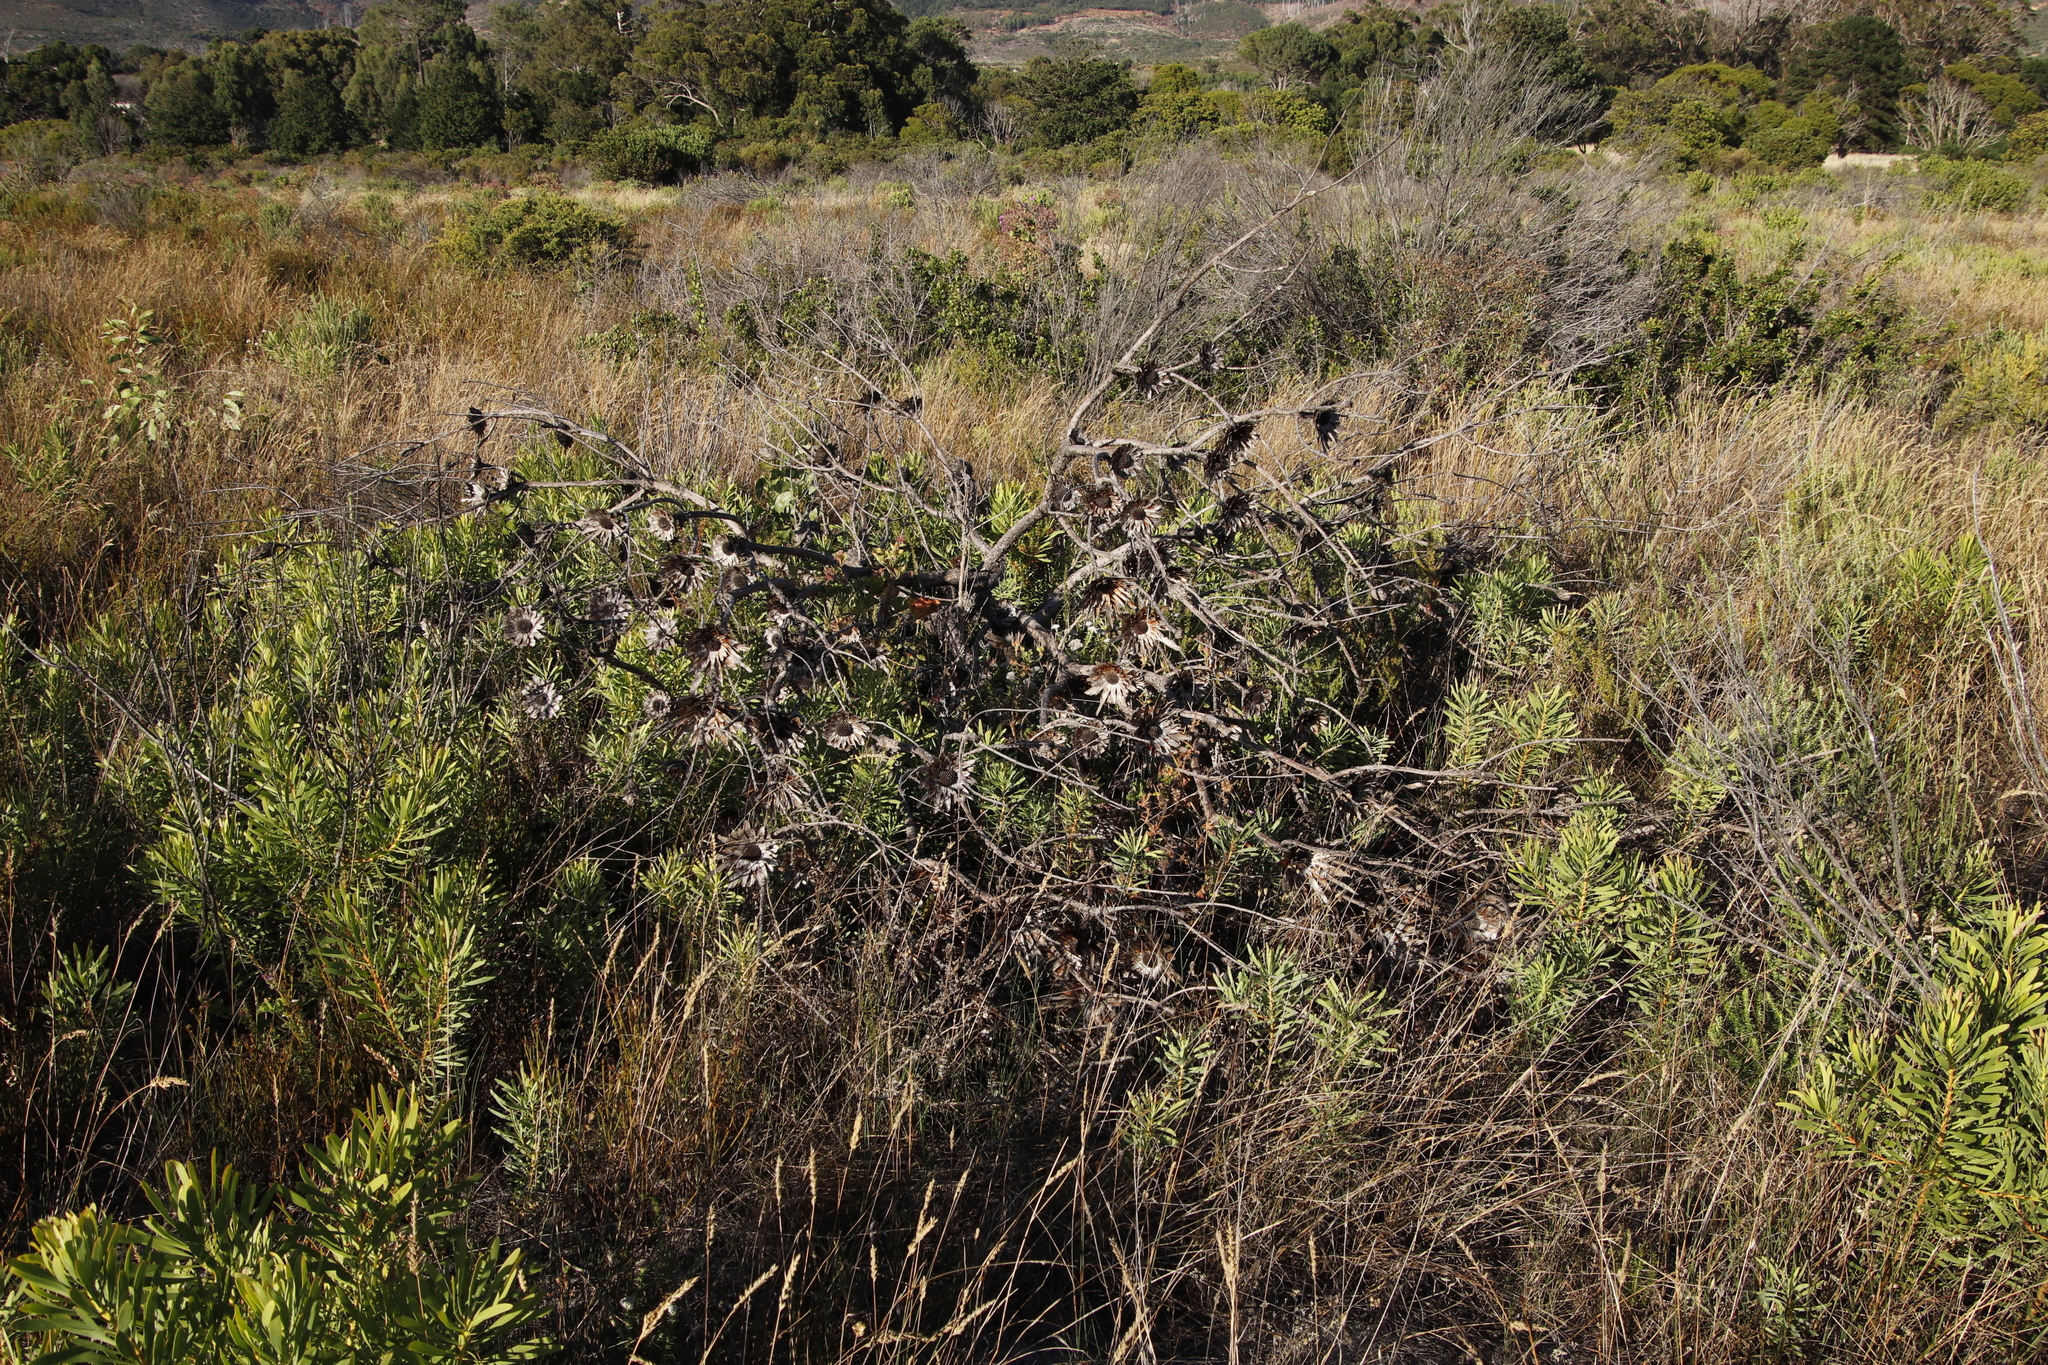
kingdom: Plantae
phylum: Tracheophyta
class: Magnoliopsida
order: Proteales
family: Proteaceae
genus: Protea
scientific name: Protea repens
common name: Sugarbush
